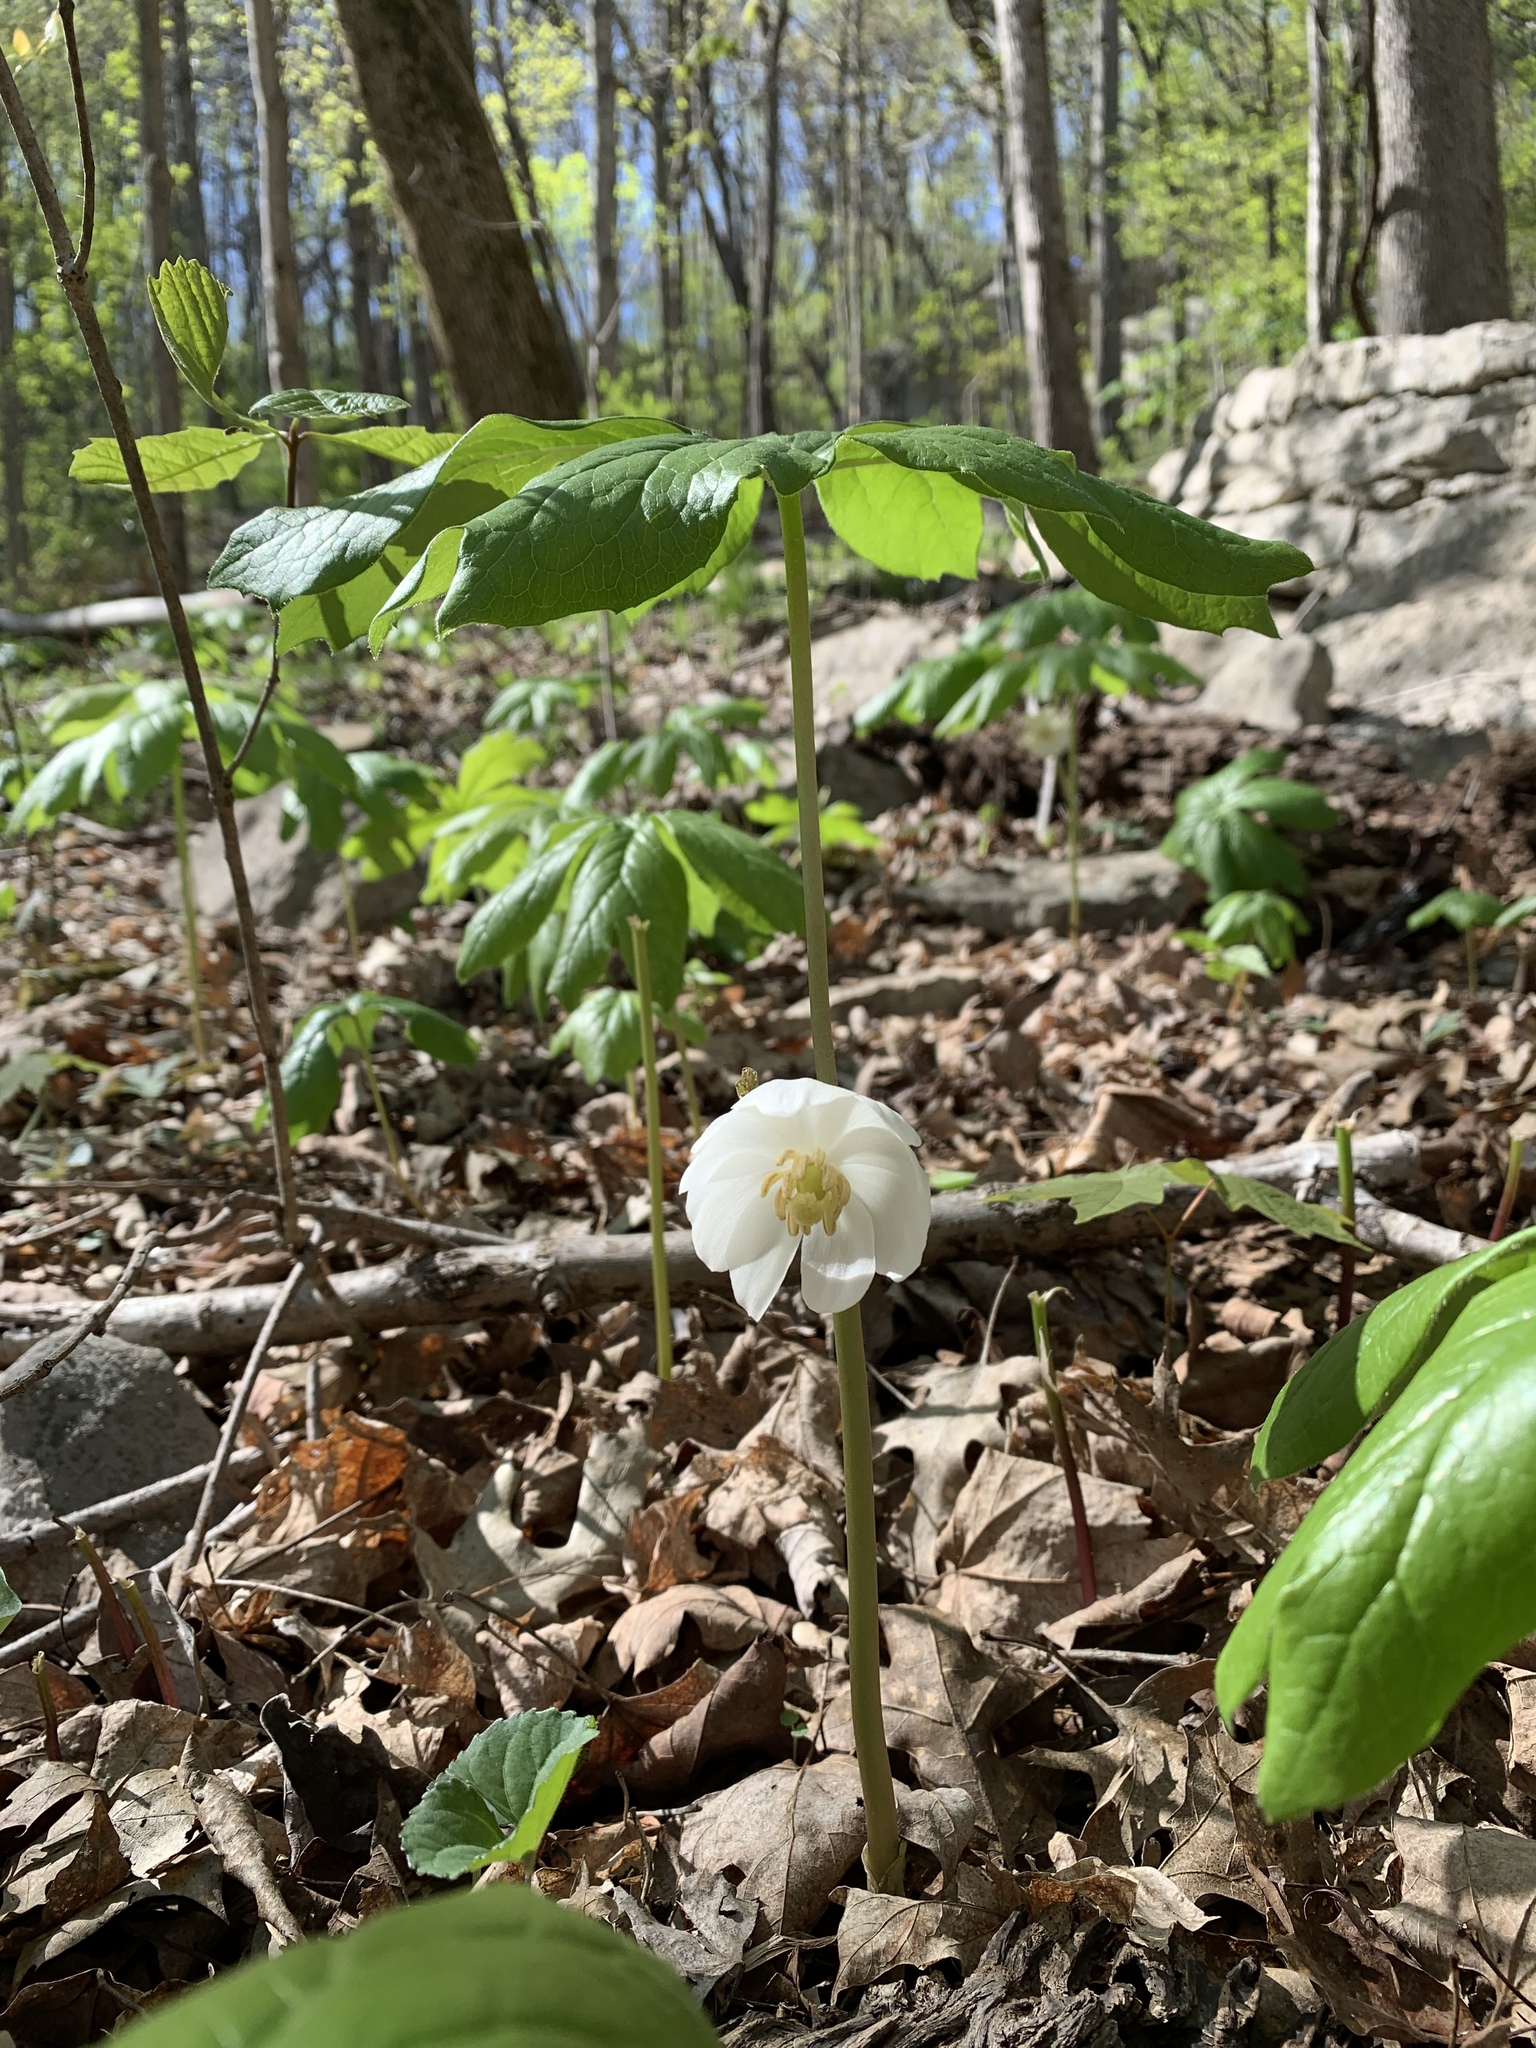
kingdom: Plantae
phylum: Tracheophyta
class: Magnoliopsida
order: Ranunculales
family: Berberidaceae
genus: Podophyllum
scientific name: Podophyllum peltatum
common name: Wild mandrake
